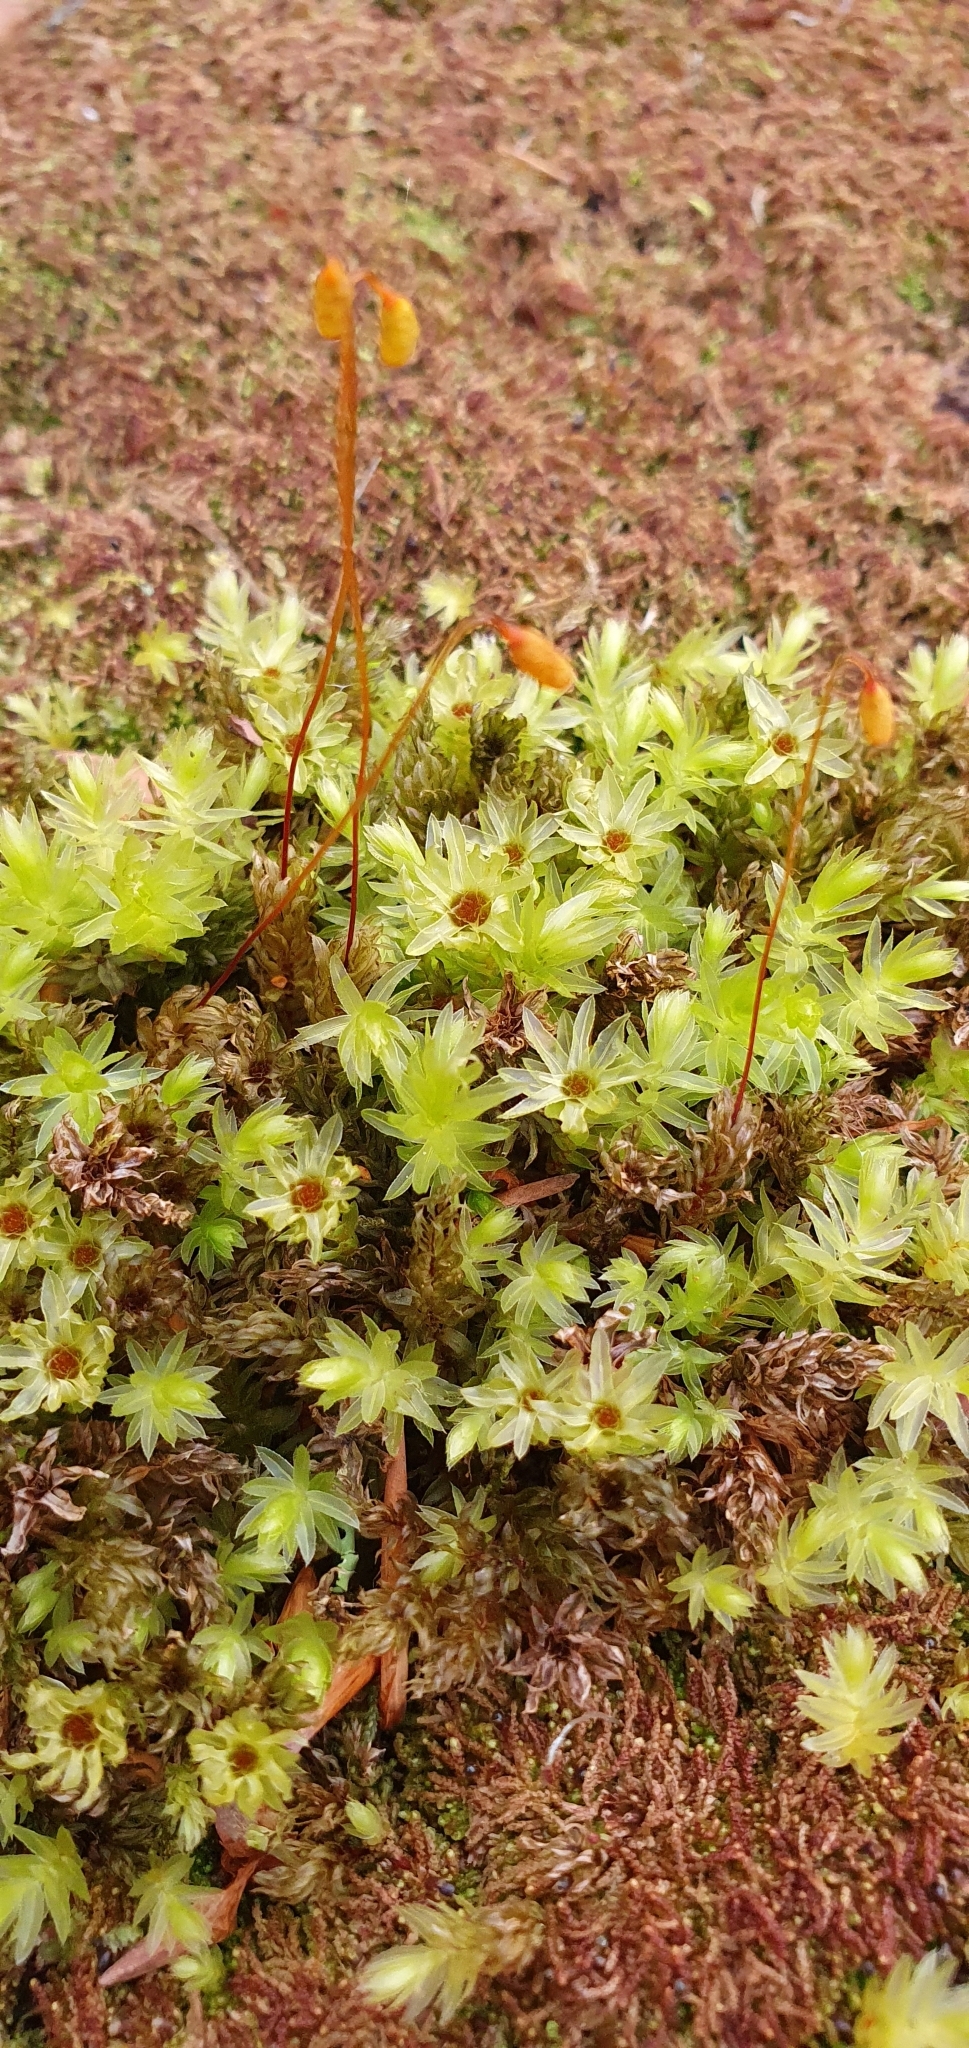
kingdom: Plantae
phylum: Bryophyta
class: Bryopsida
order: Bryales
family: Mniaceae
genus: Mnium
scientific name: Mnium hornum
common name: Swan's-neck leafy moss
